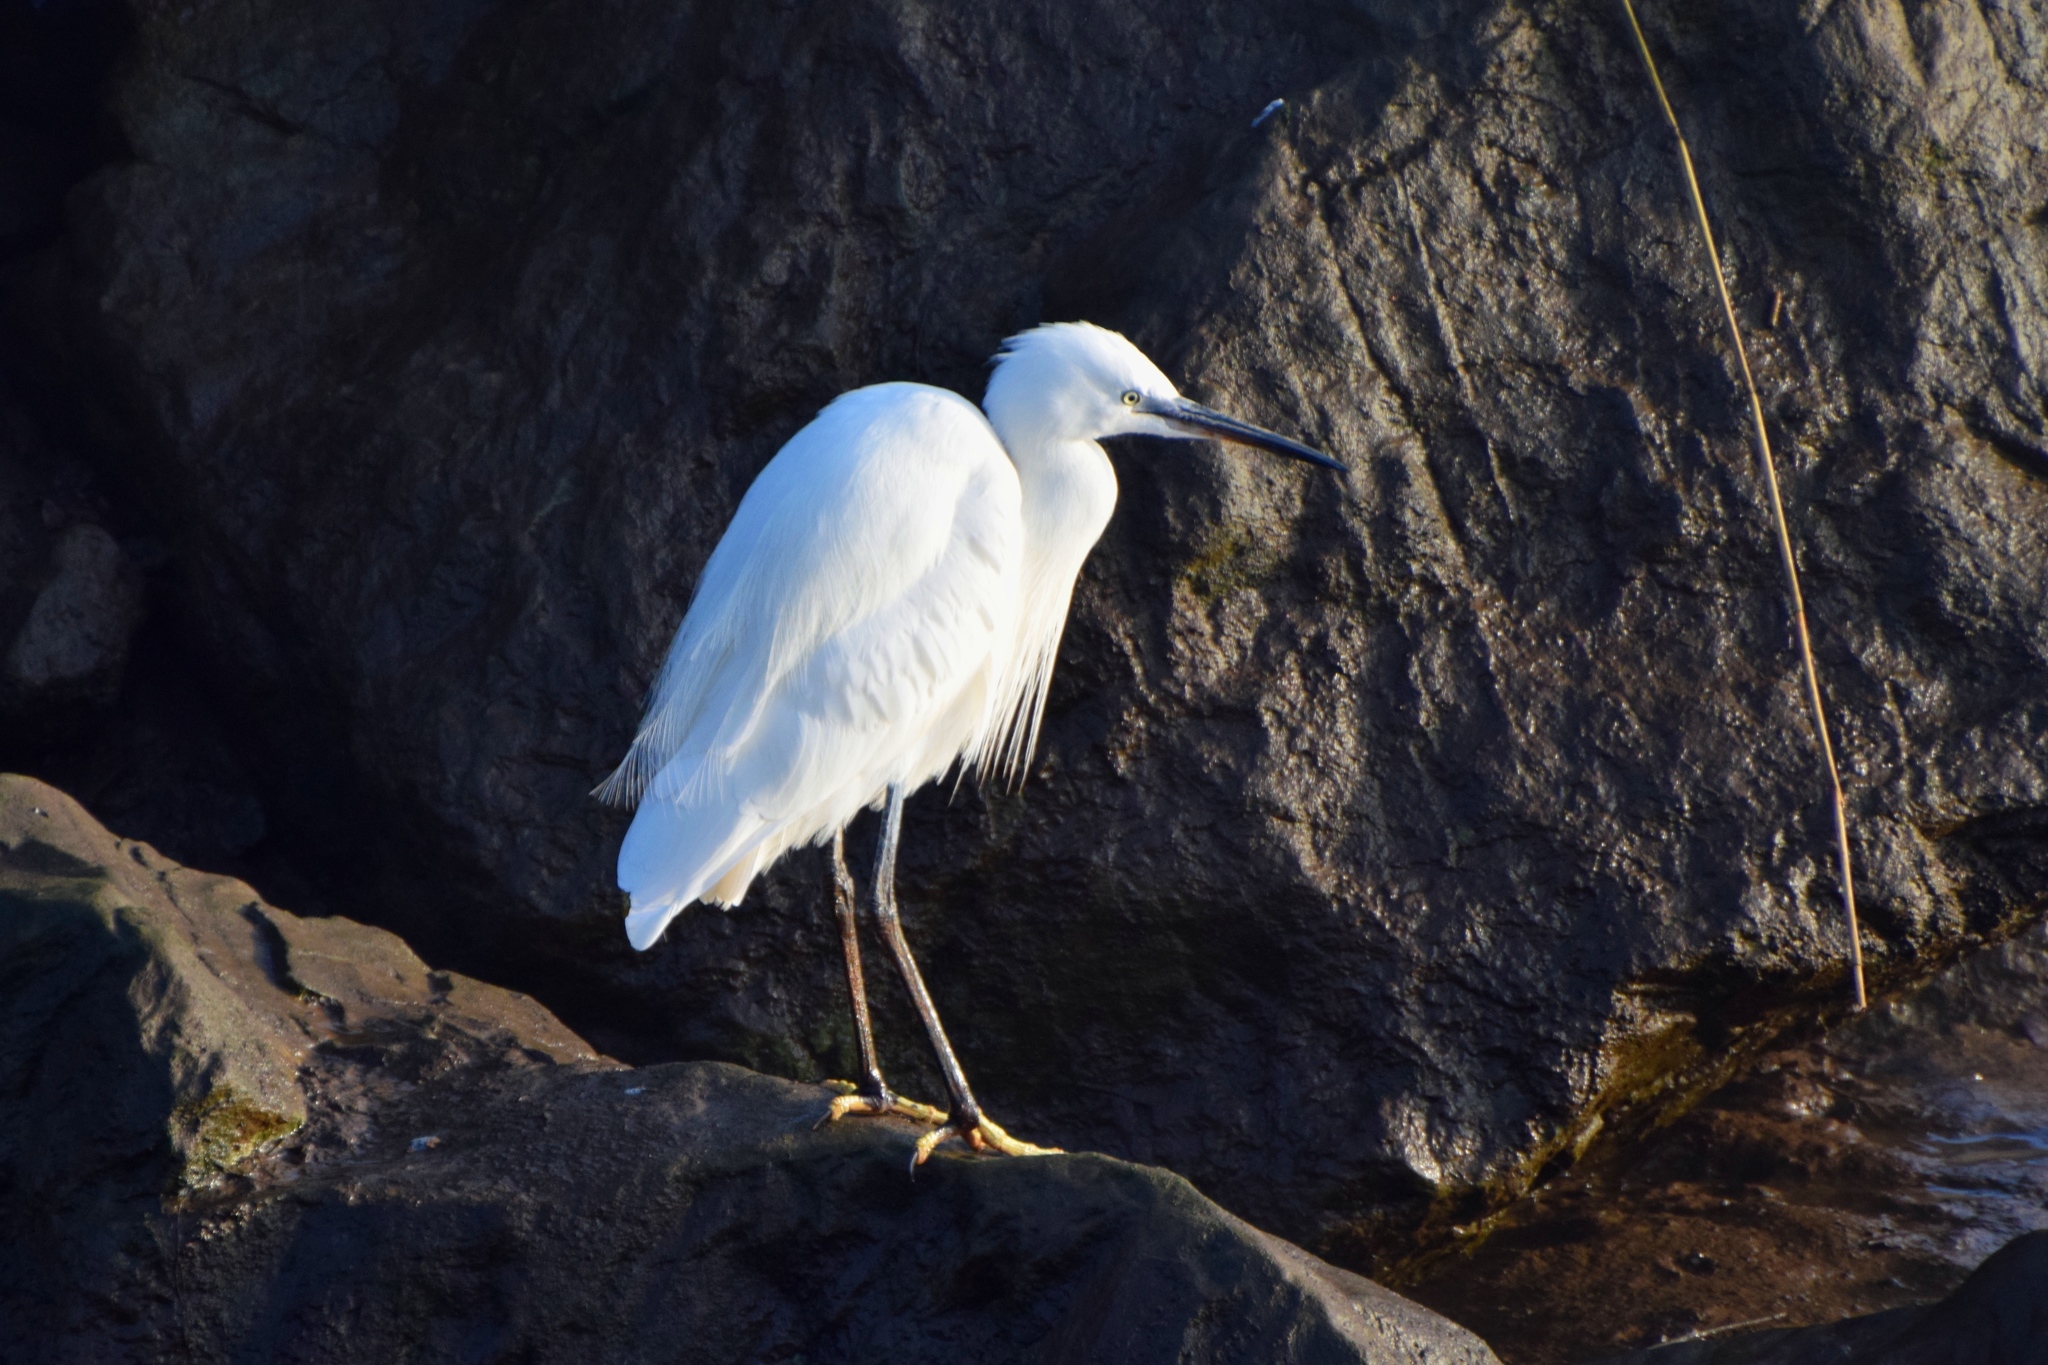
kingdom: Animalia
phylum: Chordata
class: Aves
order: Pelecaniformes
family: Ardeidae
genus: Egretta
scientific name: Egretta garzetta
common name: Little egret
